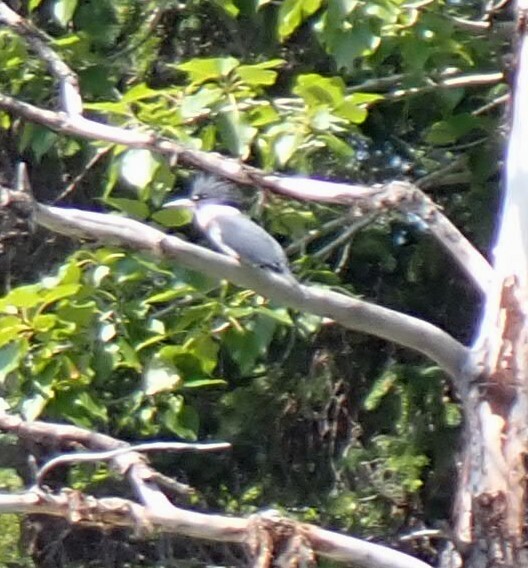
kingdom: Animalia
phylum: Chordata
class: Aves
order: Coraciiformes
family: Alcedinidae
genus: Megaceryle
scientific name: Megaceryle alcyon
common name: Belted kingfisher
